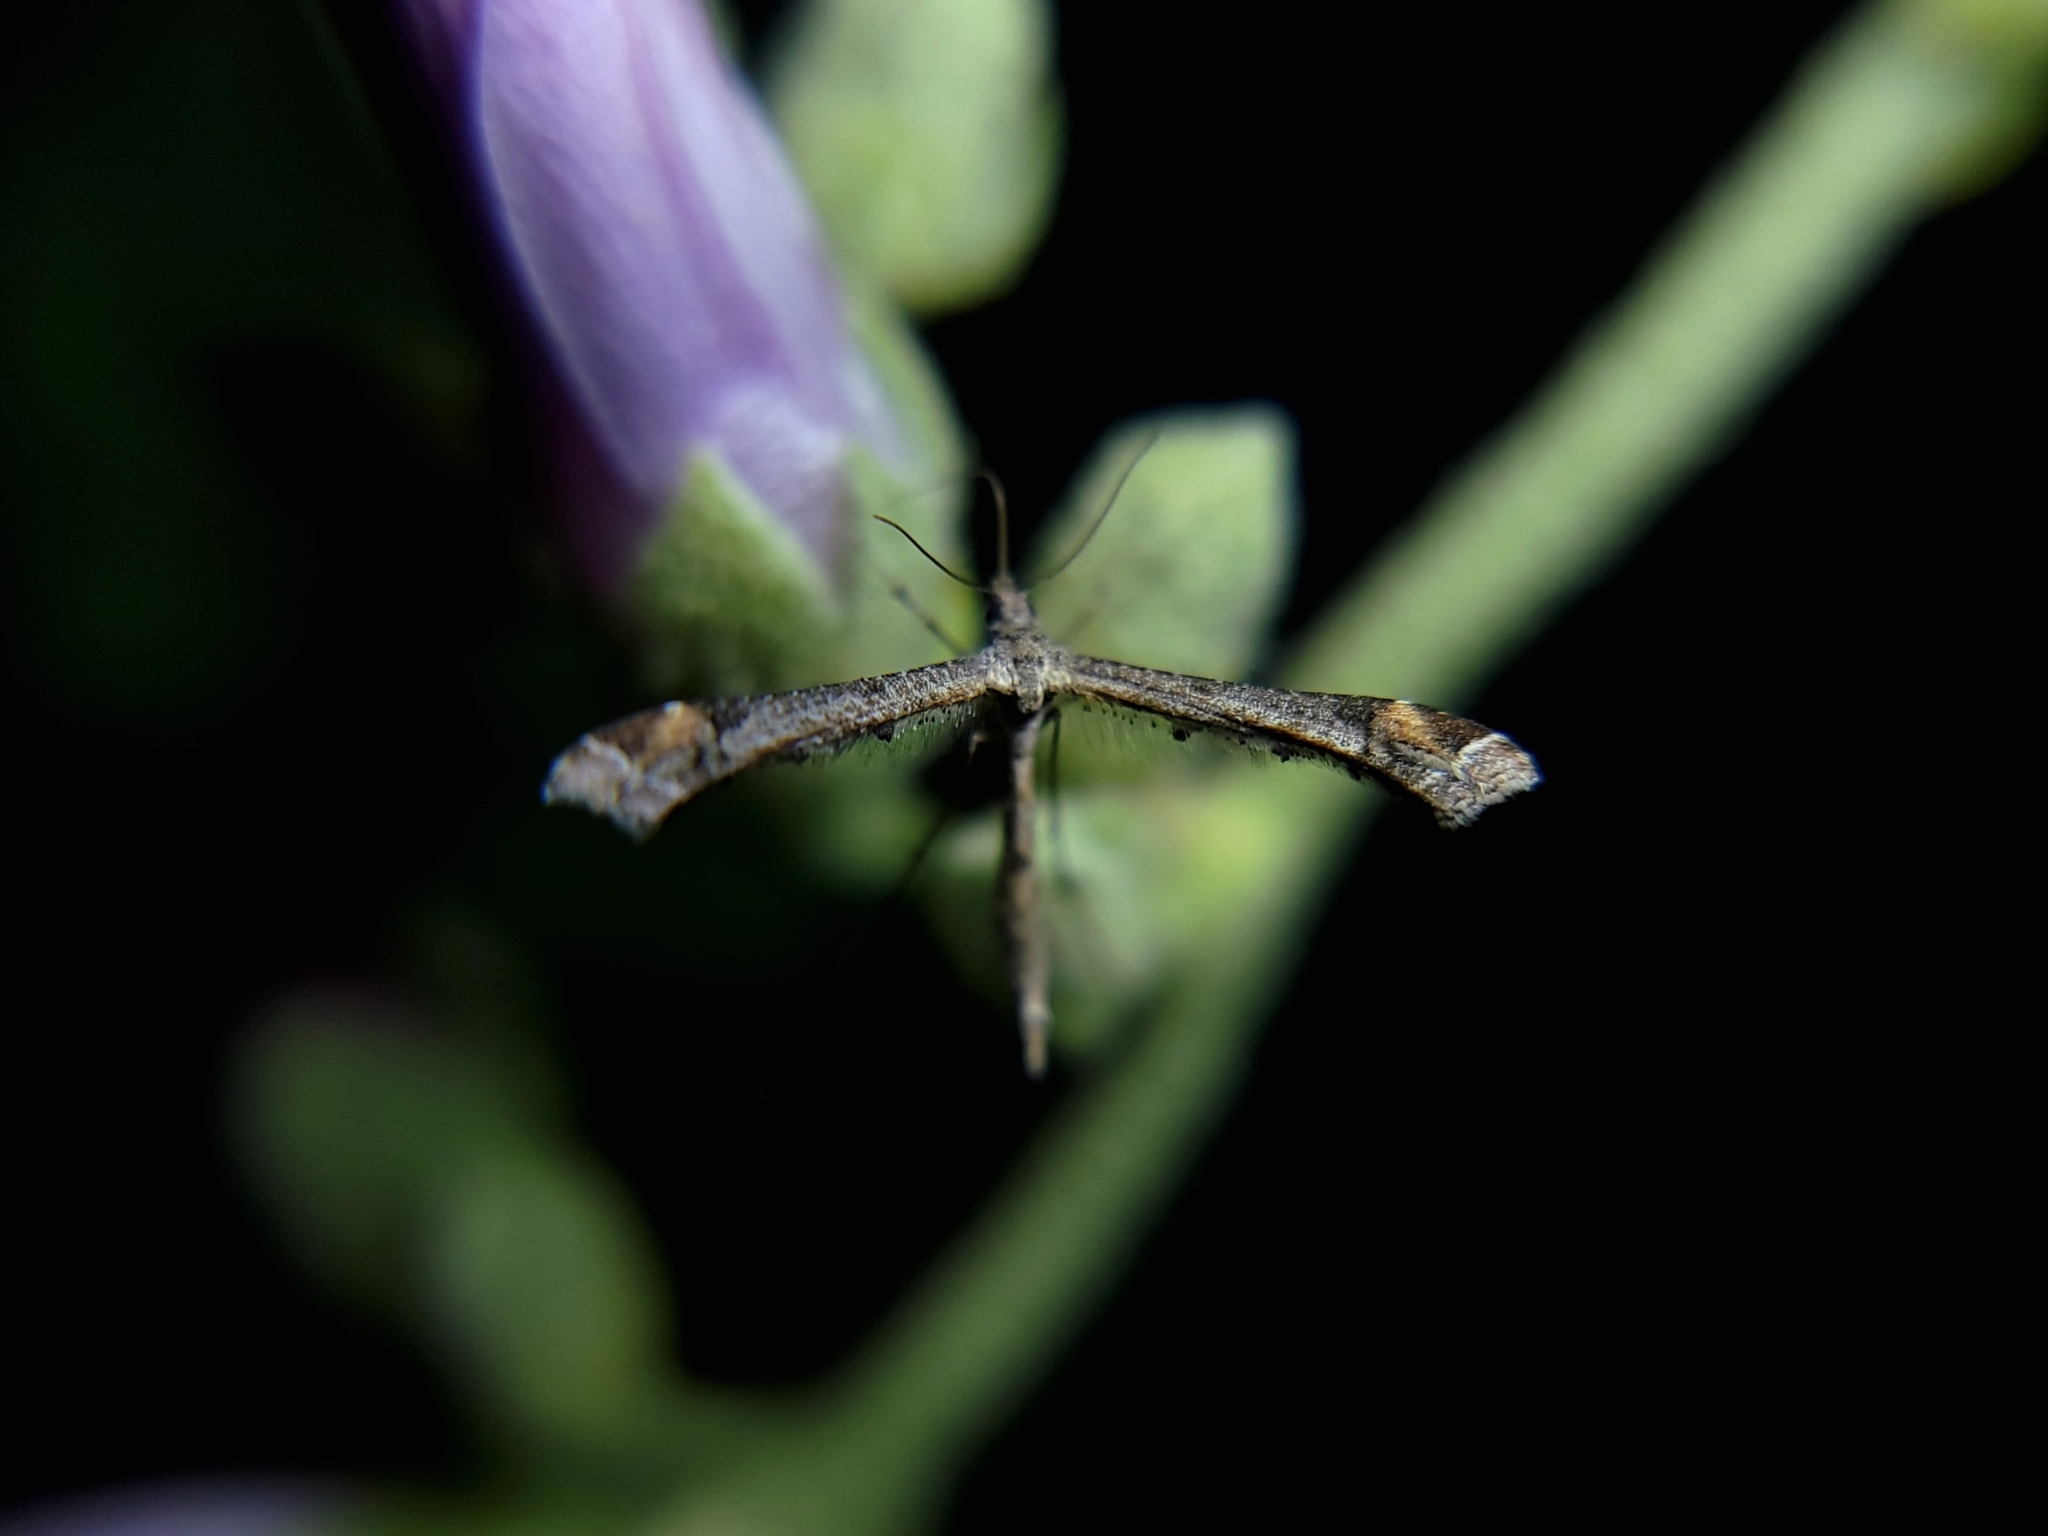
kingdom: Animalia
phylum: Arthropoda
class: Insecta
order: Lepidoptera
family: Pterophoridae
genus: Anstenoptilia
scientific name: Anstenoptilia marmarodactyla
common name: Moth
